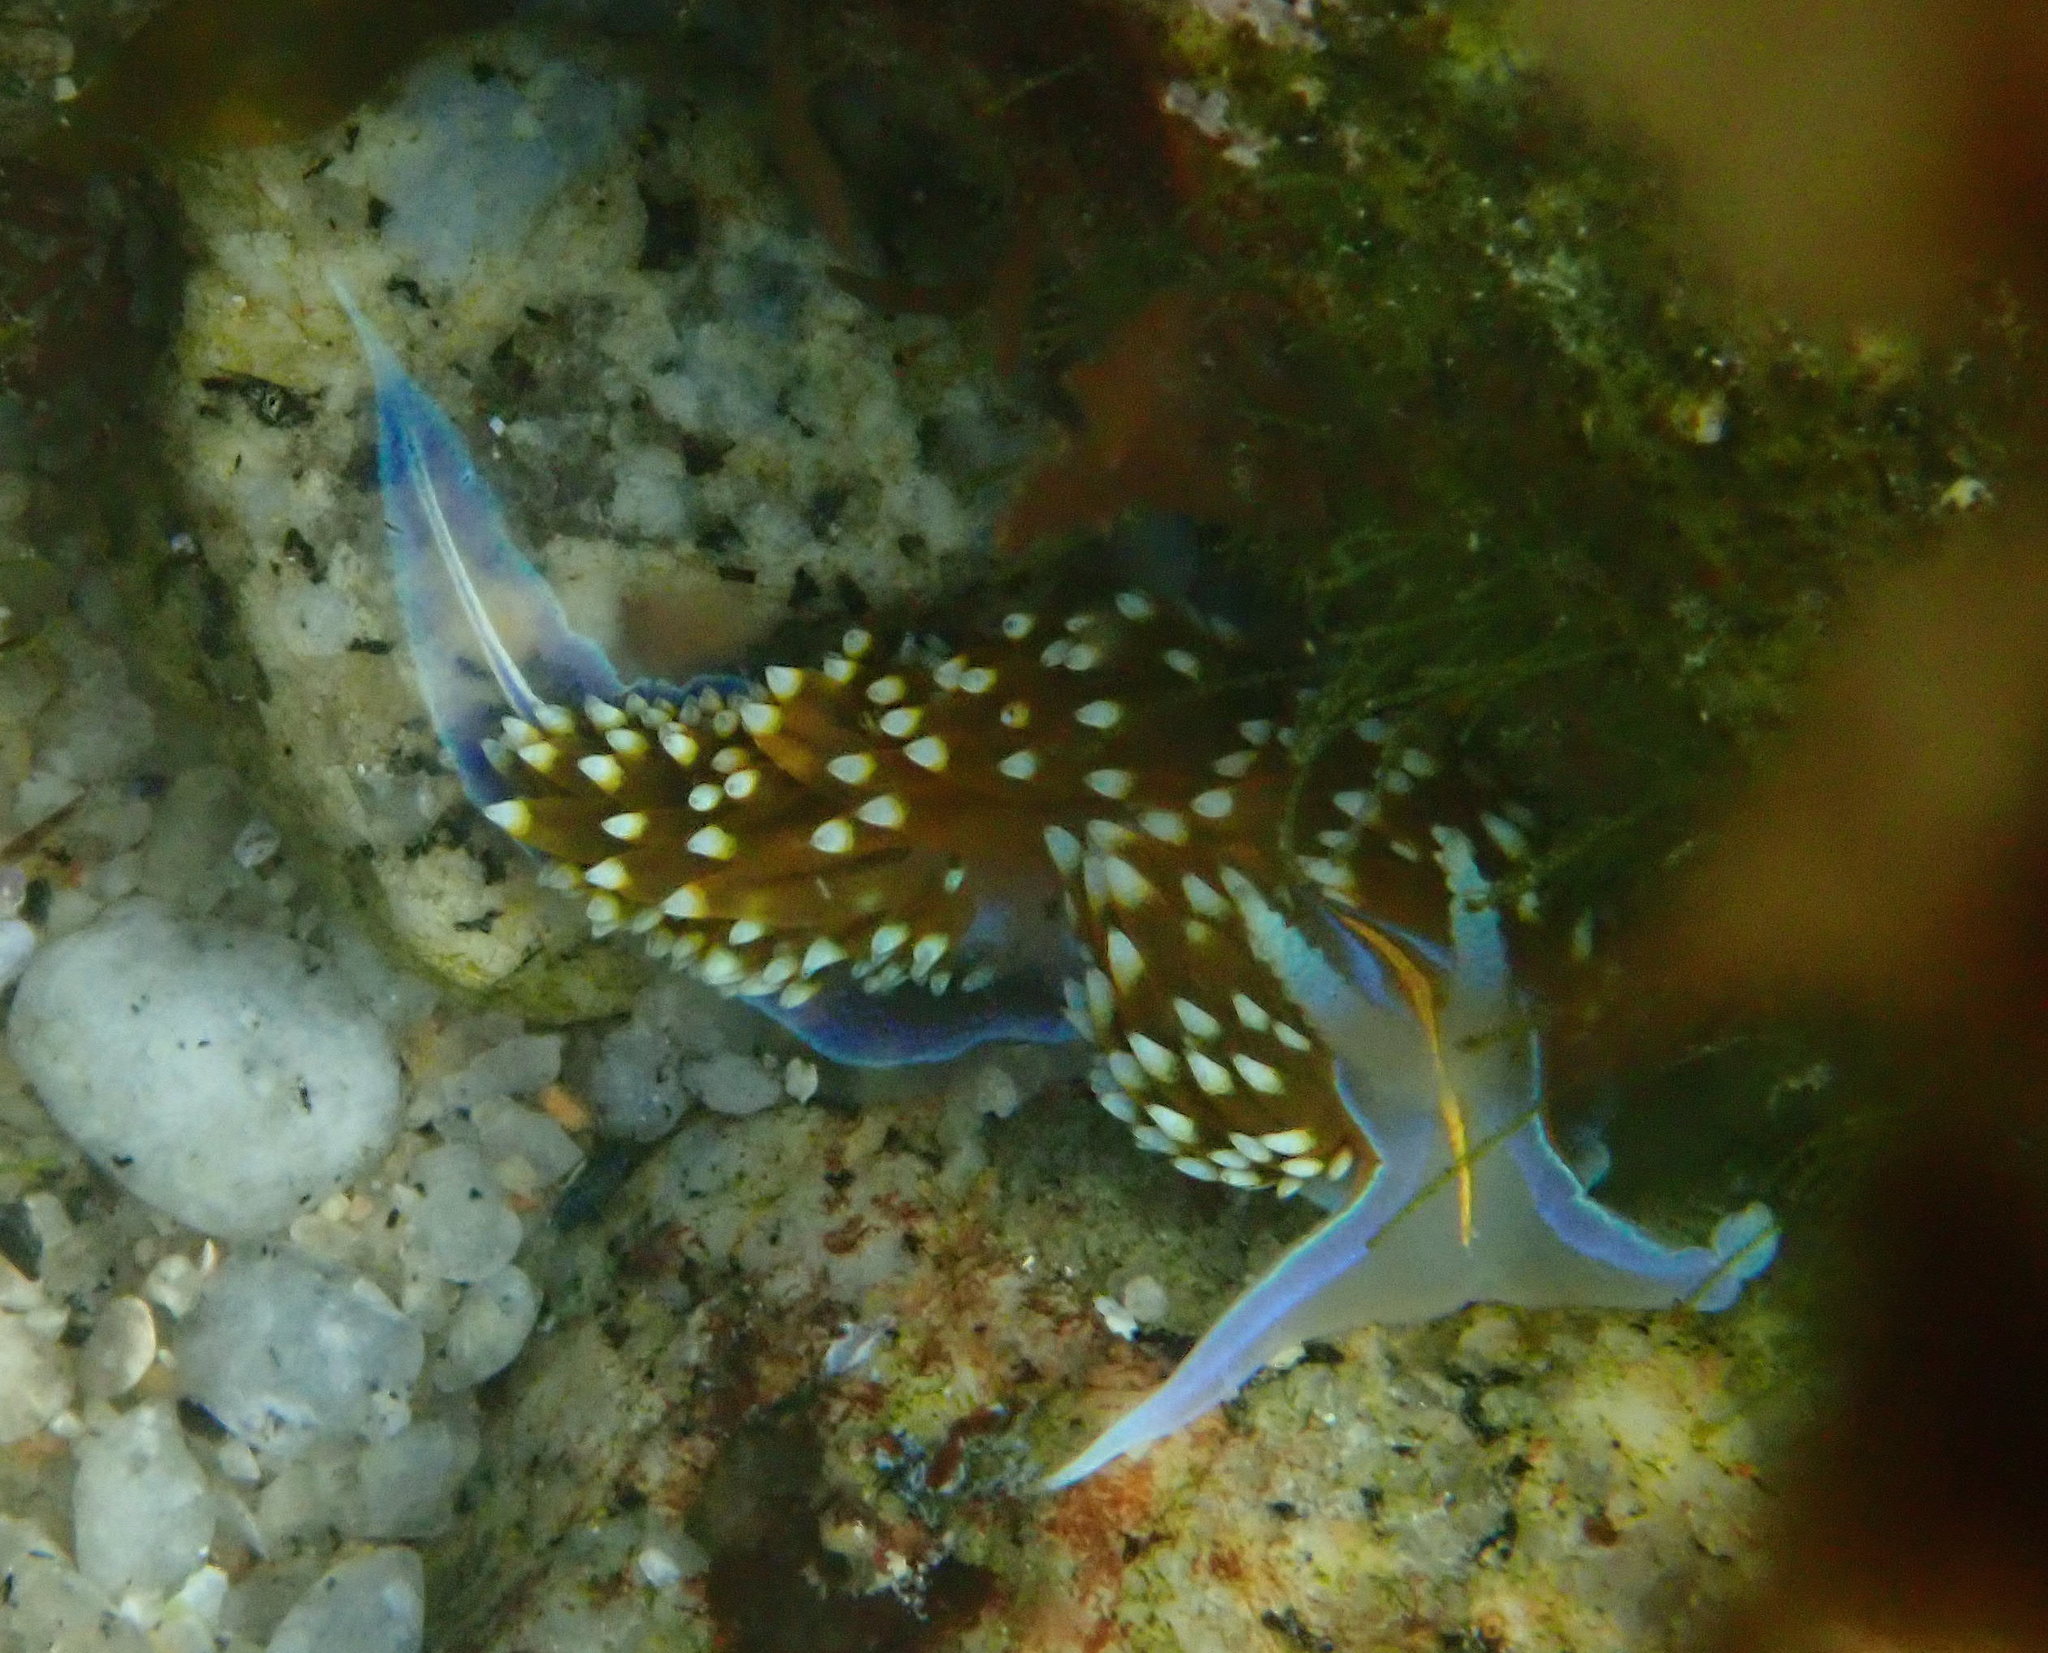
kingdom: Animalia
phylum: Mollusca
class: Gastropoda
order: Nudibranchia
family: Myrrhinidae
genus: Hermissenda
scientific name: Hermissenda opalescens
